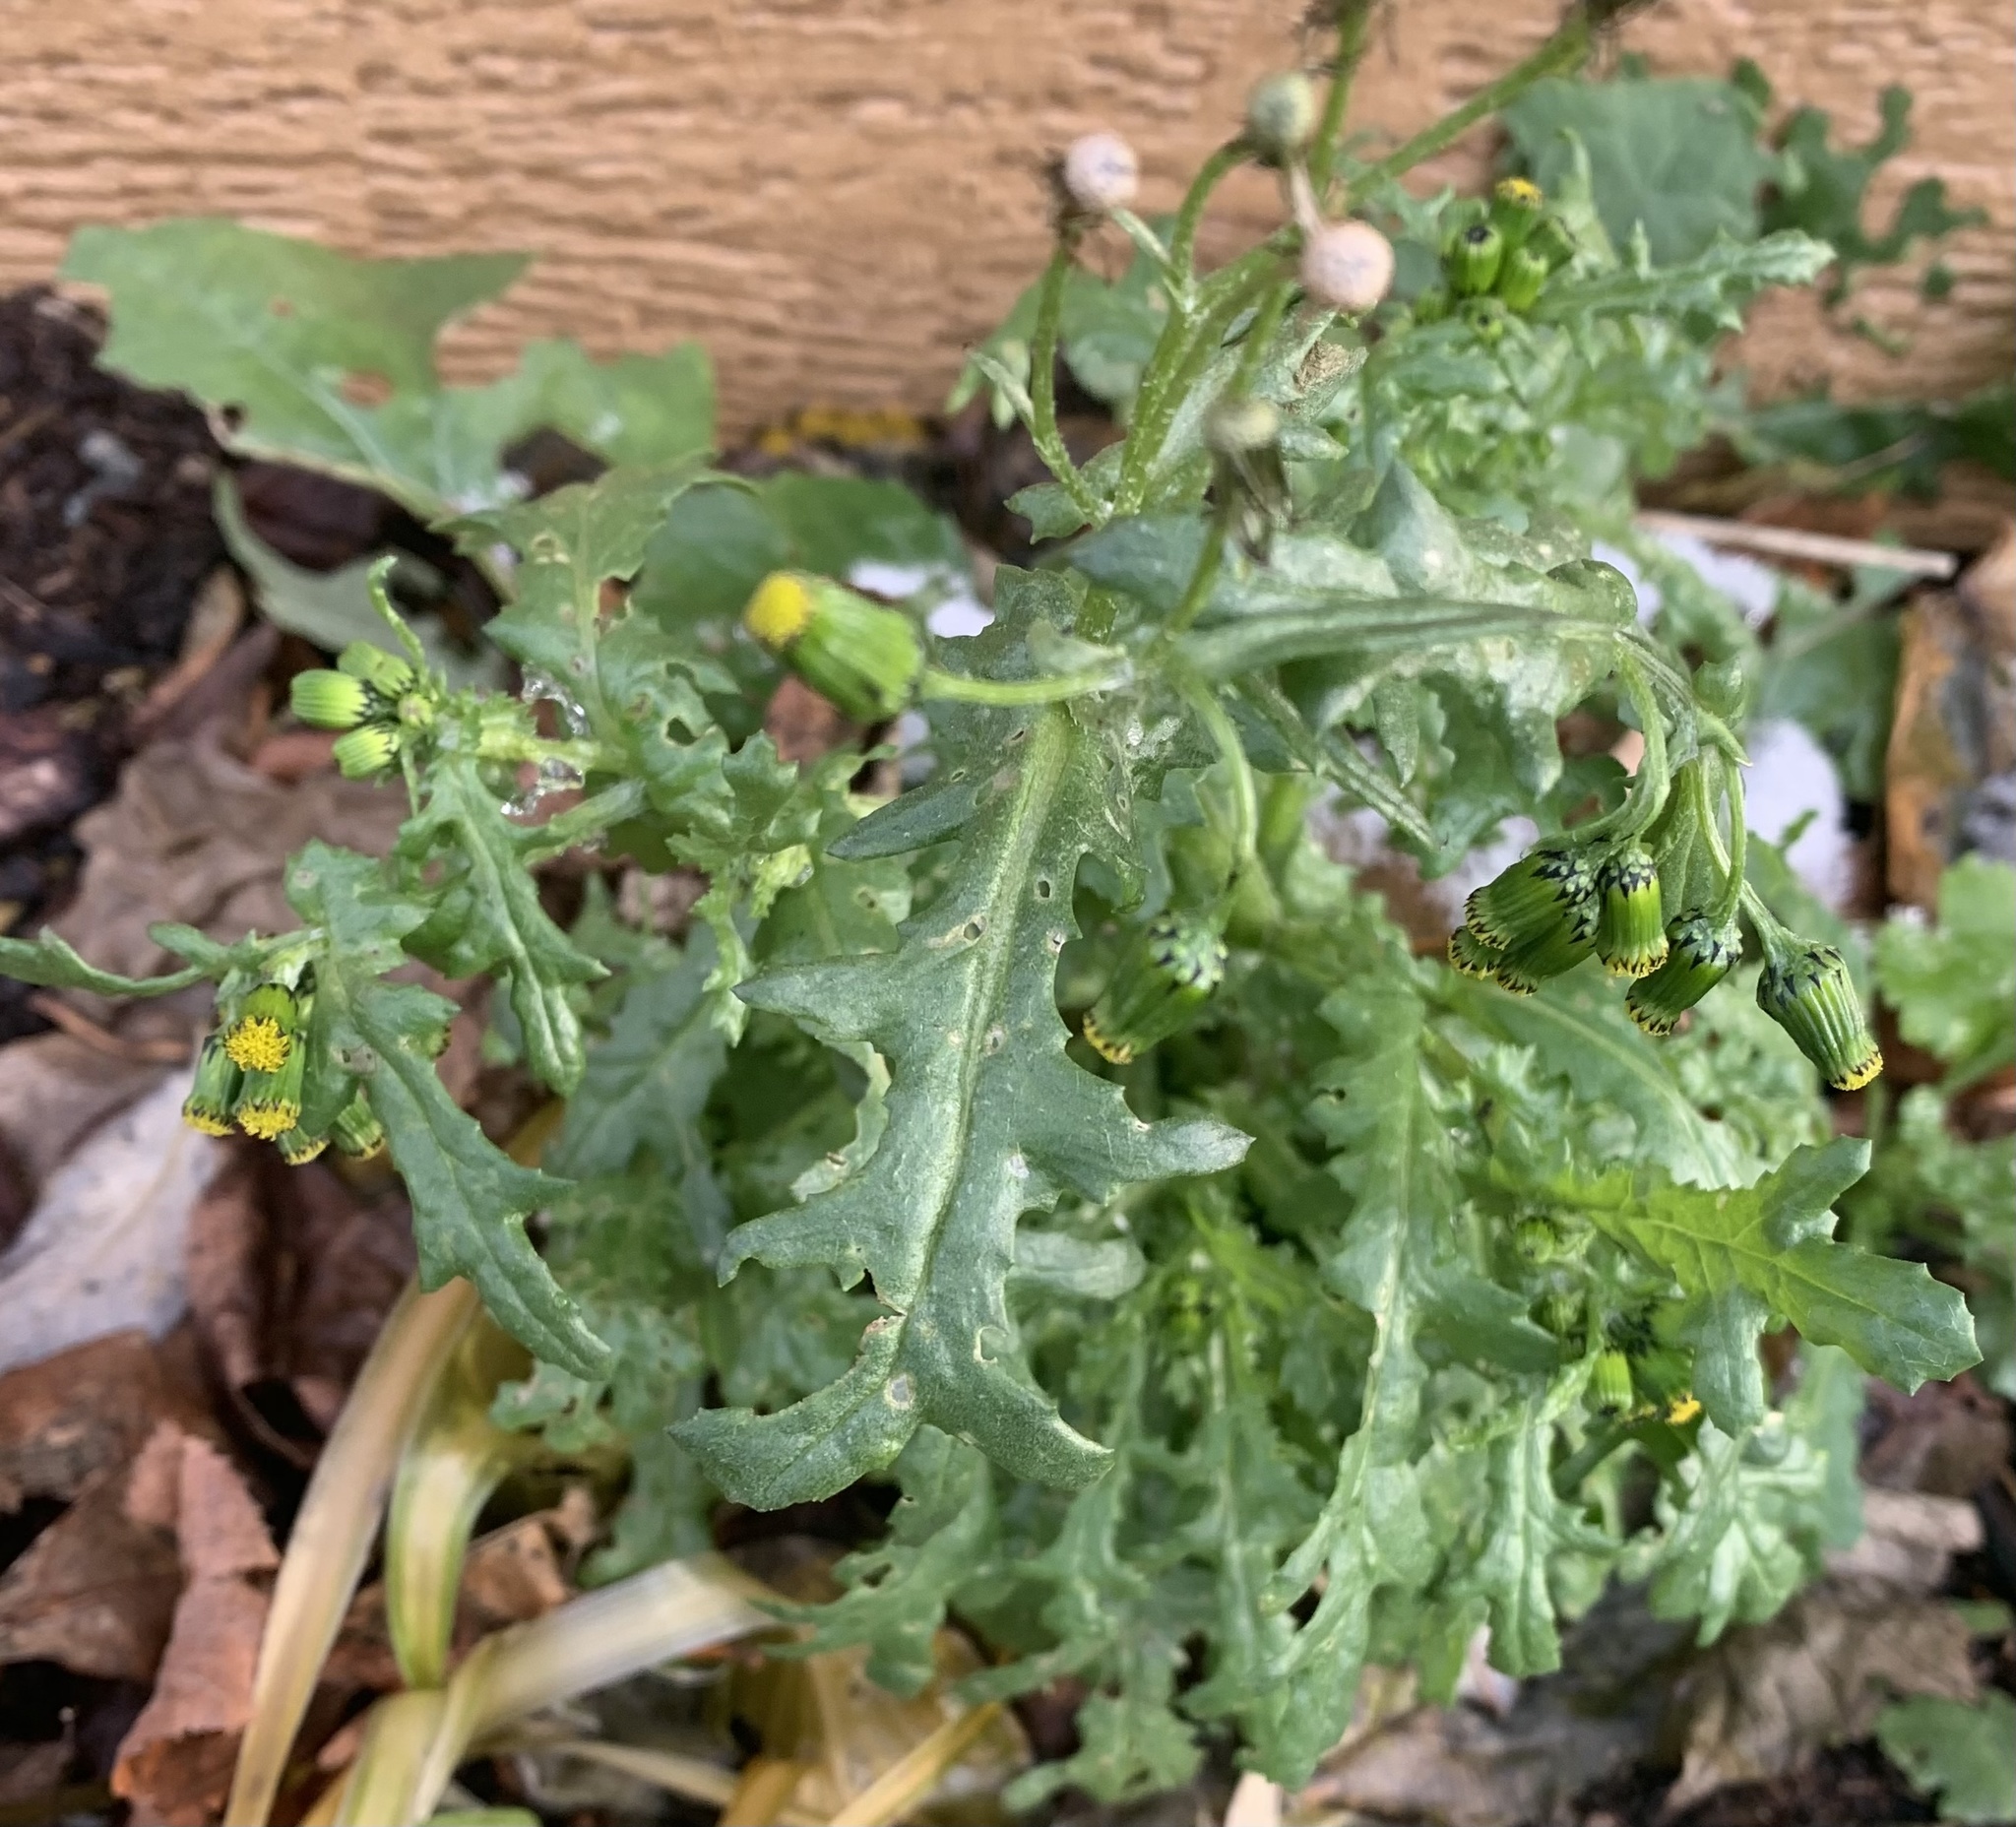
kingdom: Plantae
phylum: Tracheophyta
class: Magnoliopsida
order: Asterales
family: Asteraceae
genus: Senecio
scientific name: Senecio vulgaris
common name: Old-man-in-the-spring
